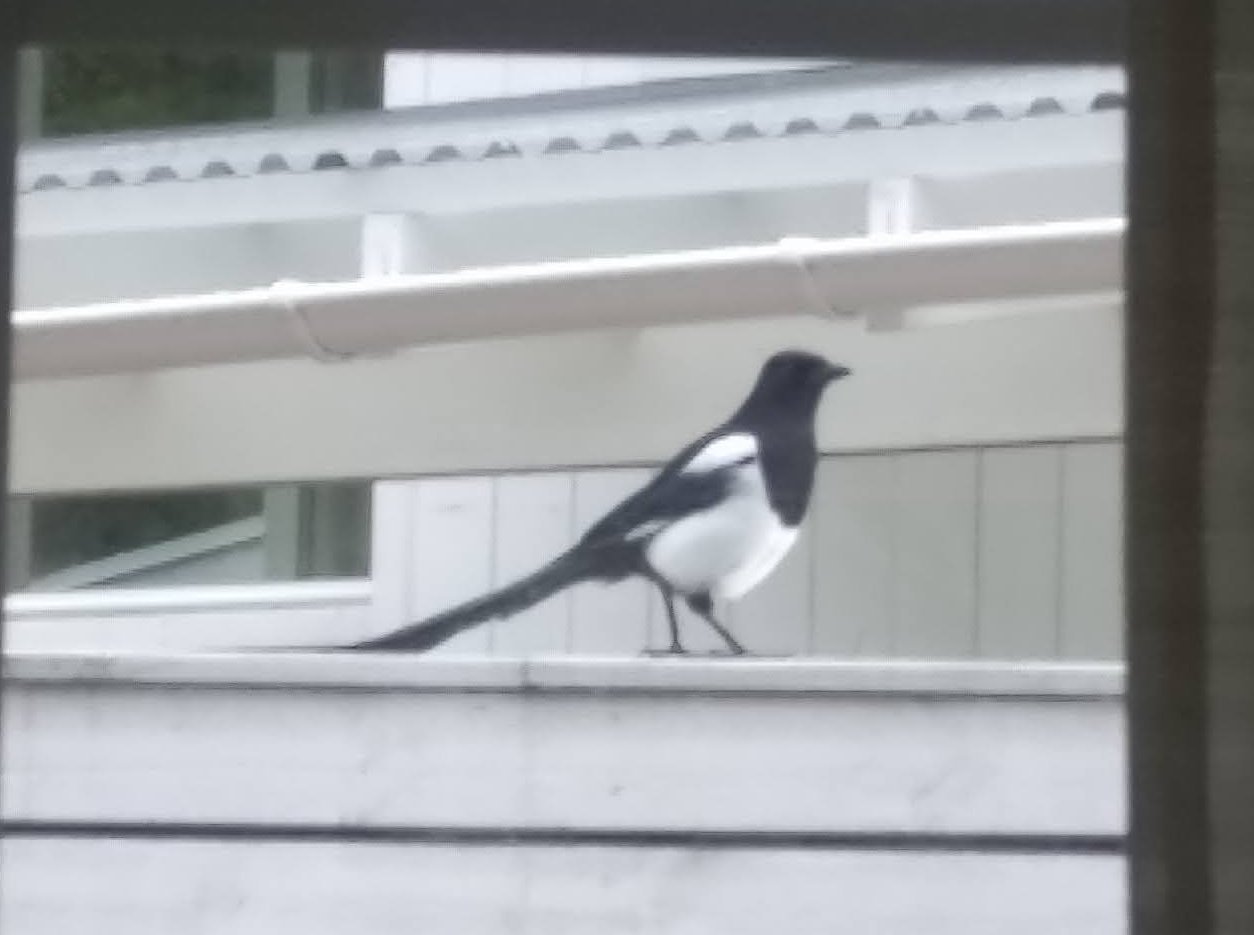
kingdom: Animalia
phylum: Chordata
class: Aves
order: Passeriformes
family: Corvidae
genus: Pica
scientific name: Pica pica
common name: Eurasian magpie
